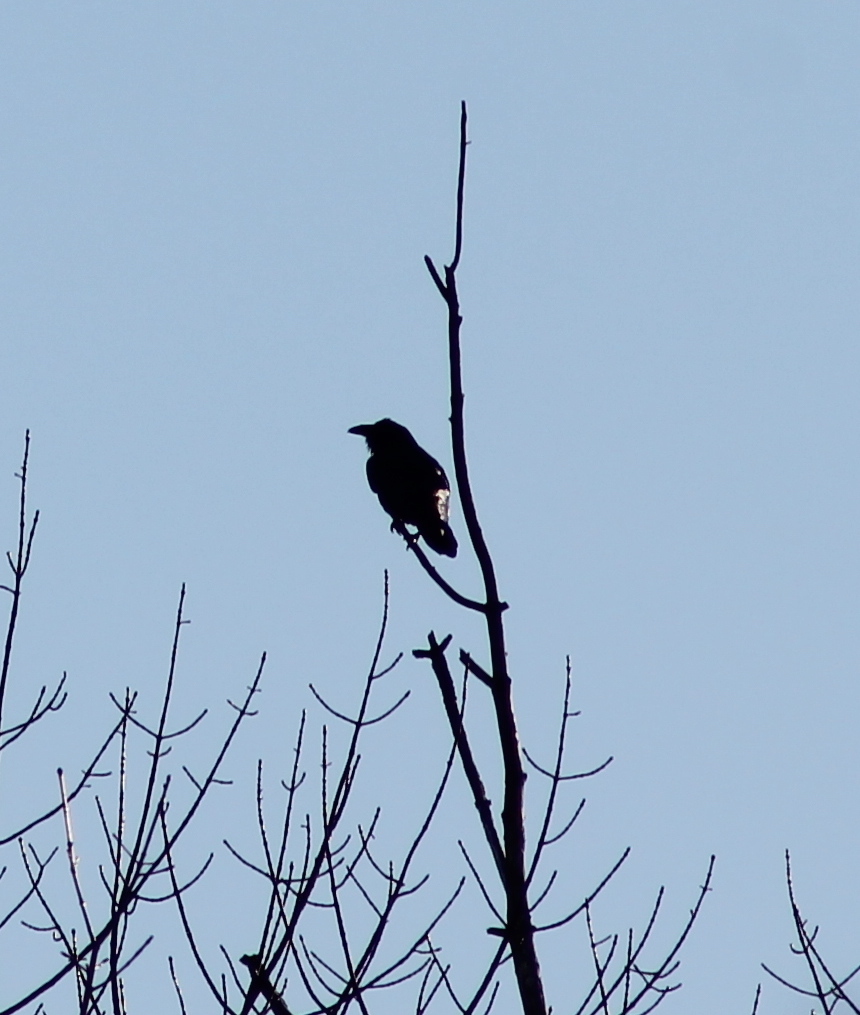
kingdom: Animalia
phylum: Chordata
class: Aves
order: Passeriformes
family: Corvidae
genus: Corvus
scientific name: Corvus corax
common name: Common raven
